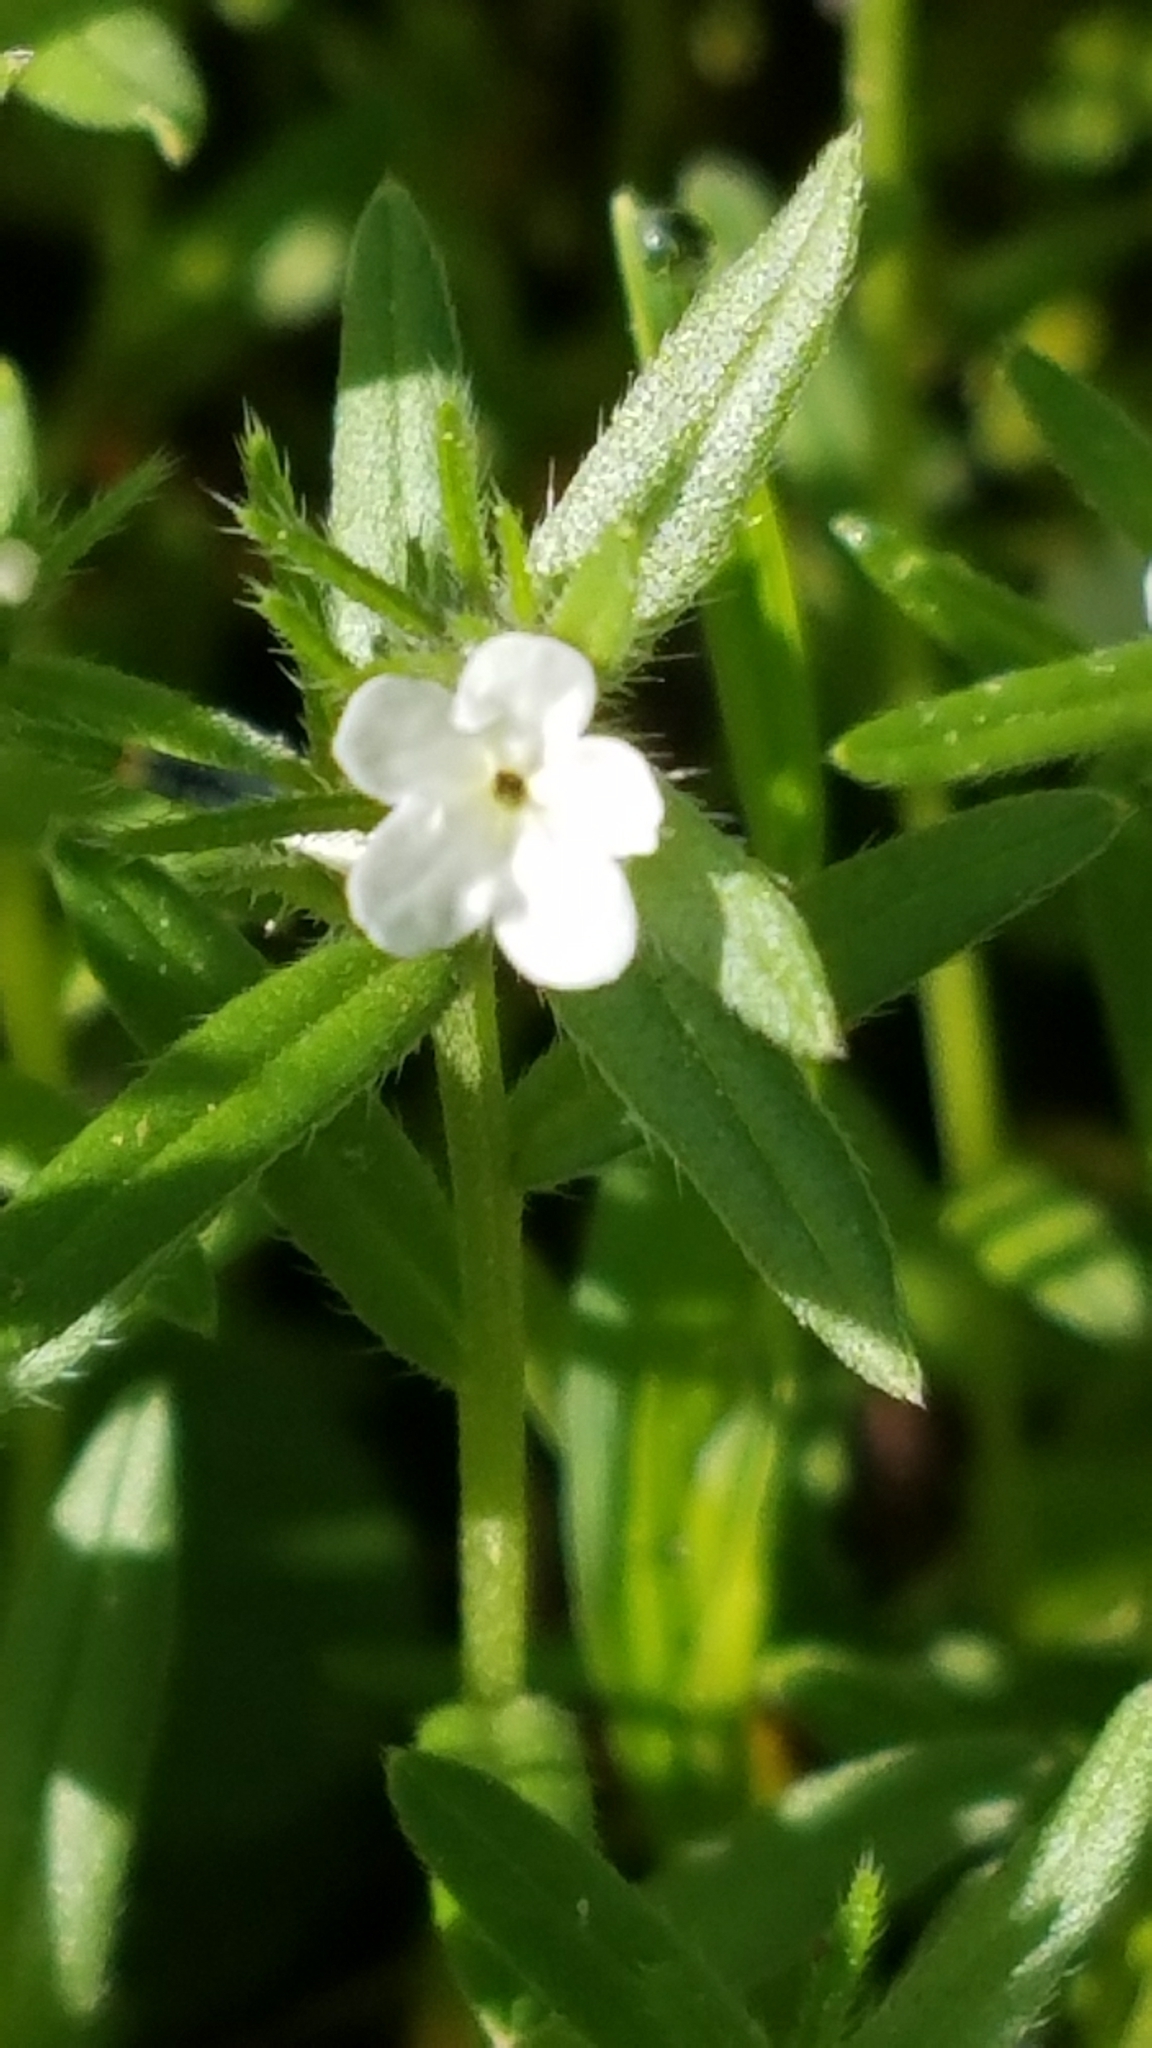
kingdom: Plantae
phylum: Tracheophyta
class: Magnoliopsida
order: Boraginales
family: Boraginaceae
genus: Buglossoides
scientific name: Buglossoides arvensis
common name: Corn gromwell
